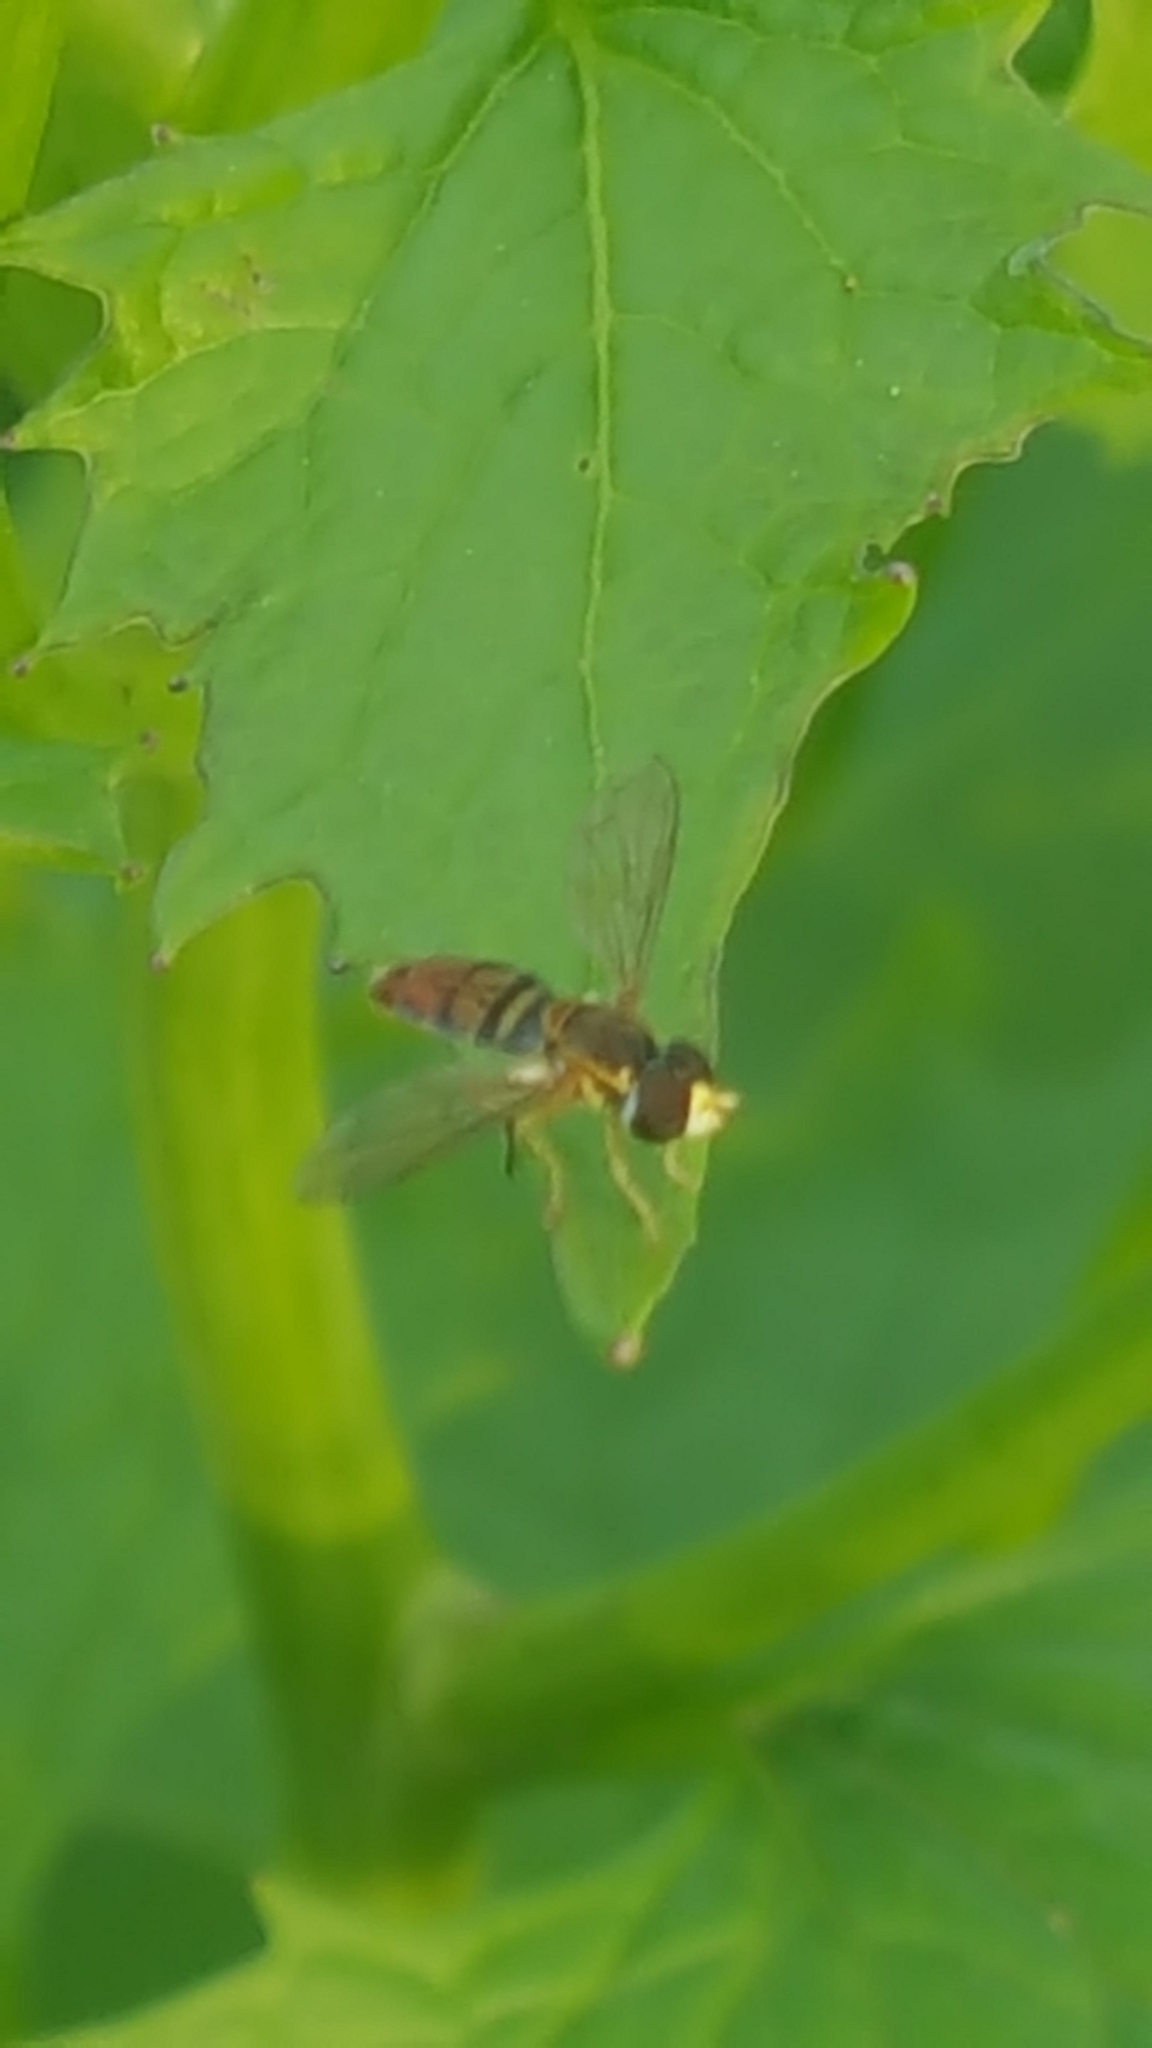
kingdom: Animalia
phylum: Arthropoda
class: Insecta
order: Diptera
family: Syrphidae
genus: Toxomerus
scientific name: Toxomerus marginatus
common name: Syrphid fly
